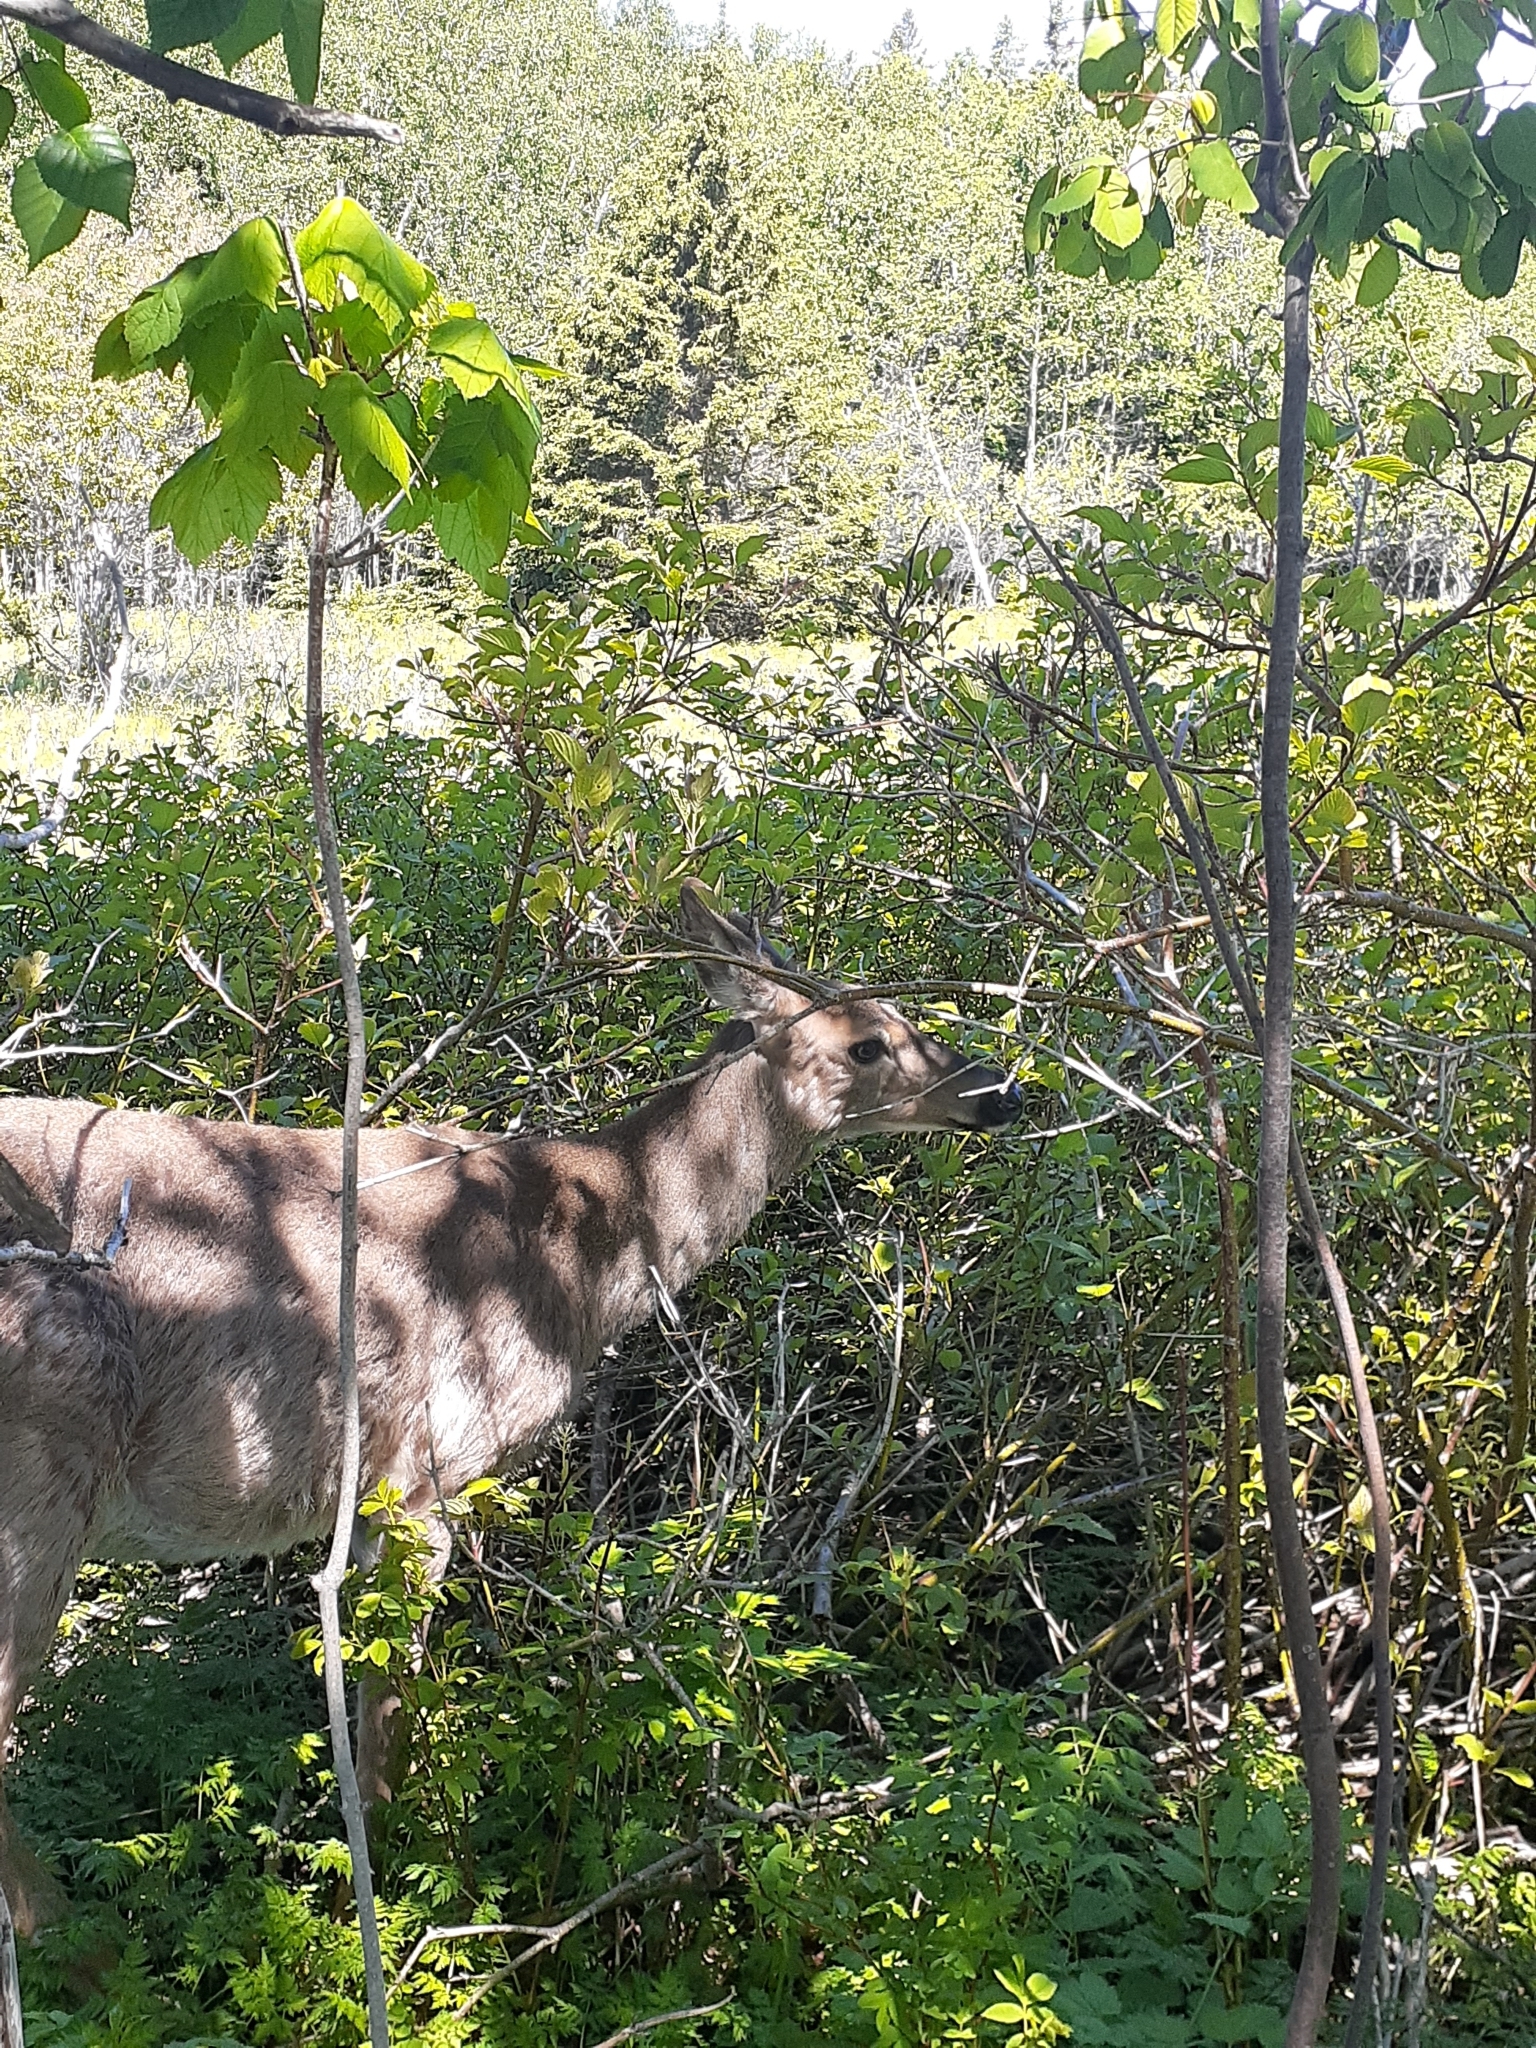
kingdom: Animalia
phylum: Chordata
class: Mammalia
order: Artiodactyla
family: Cervidae
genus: Odocoileus
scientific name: Odocoileus virginianus
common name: White-tailed deer
